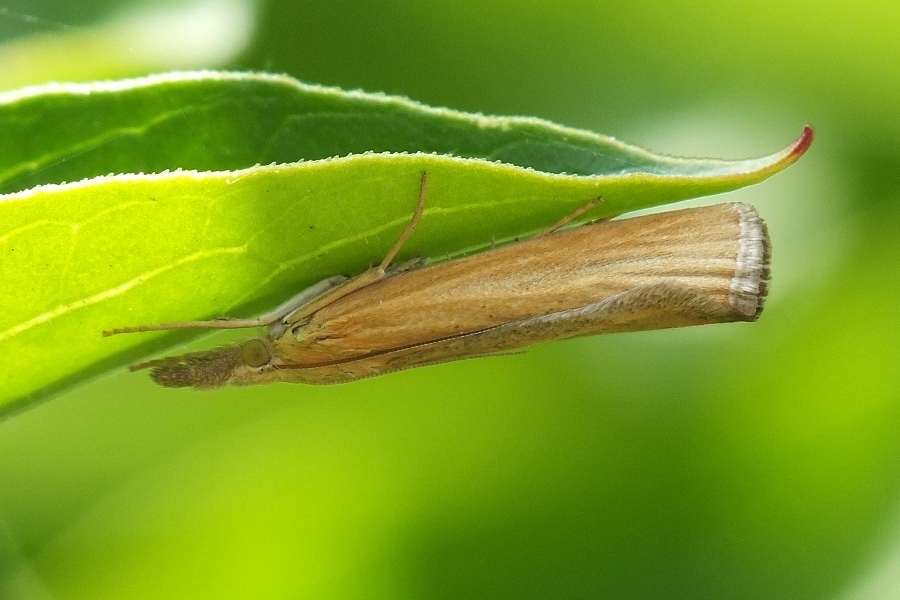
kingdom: Animalia
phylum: Arthropoda
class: Insecta
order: Lepidoptera
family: Crambidae
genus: Pediasia
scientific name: Pediasia luteella
